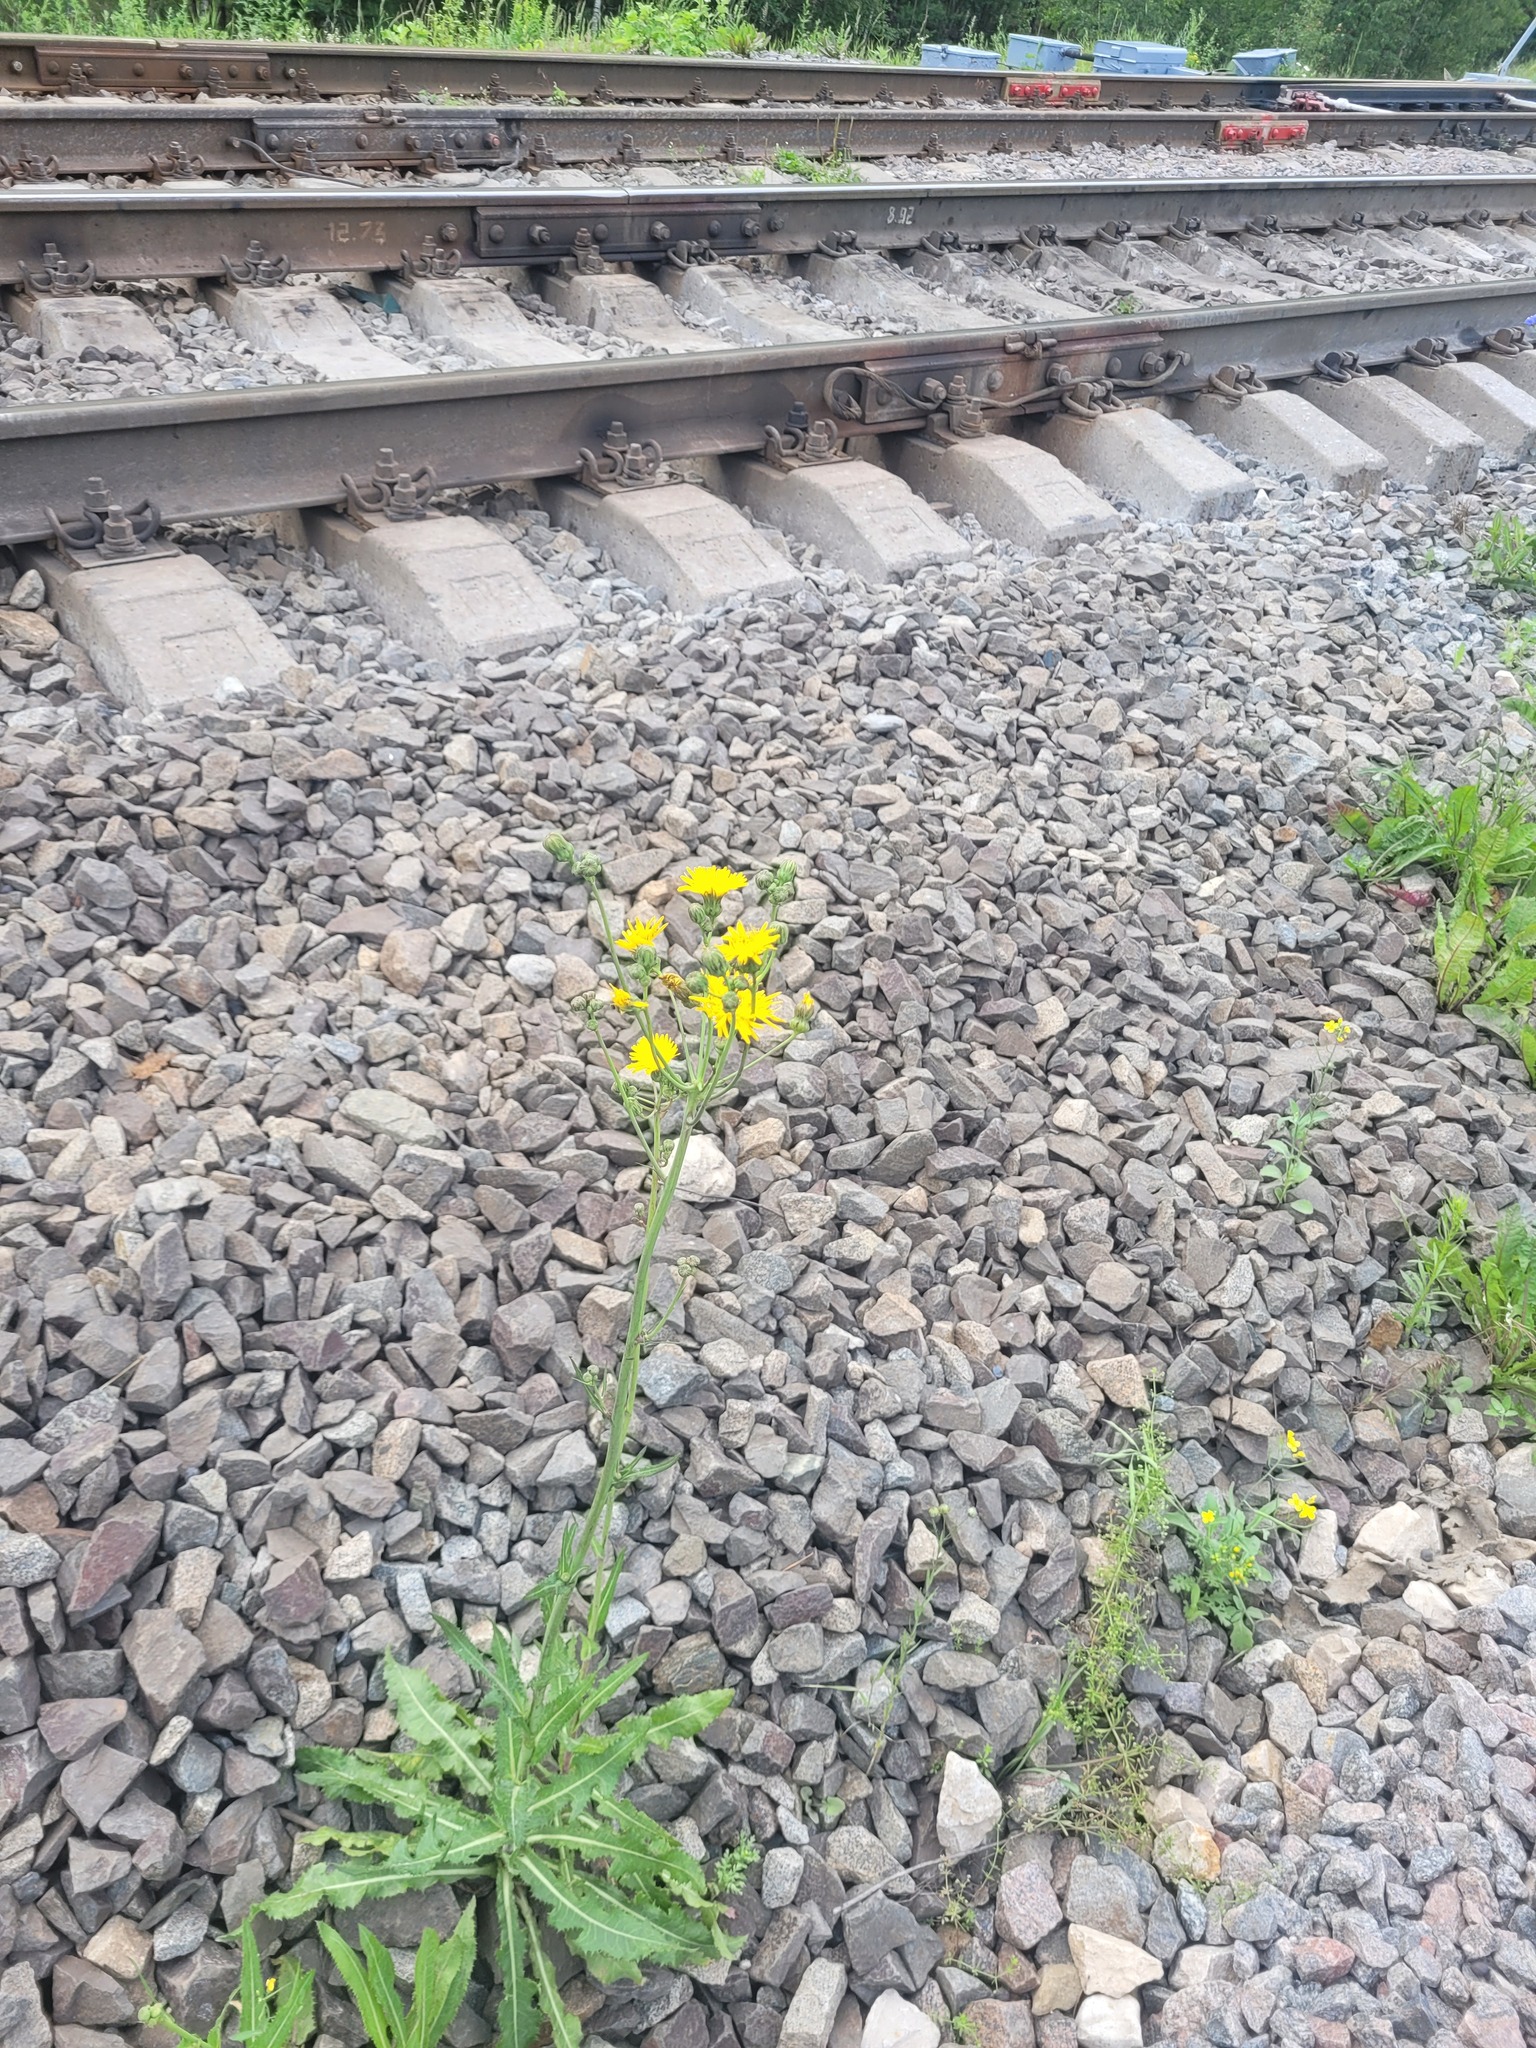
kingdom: Plantae
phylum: Tracheophyta
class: Magnoliopsida
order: Asterales
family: Asteraceae
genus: Sonchus
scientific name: Sonchus arvensis
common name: Perennial sow-thistle
